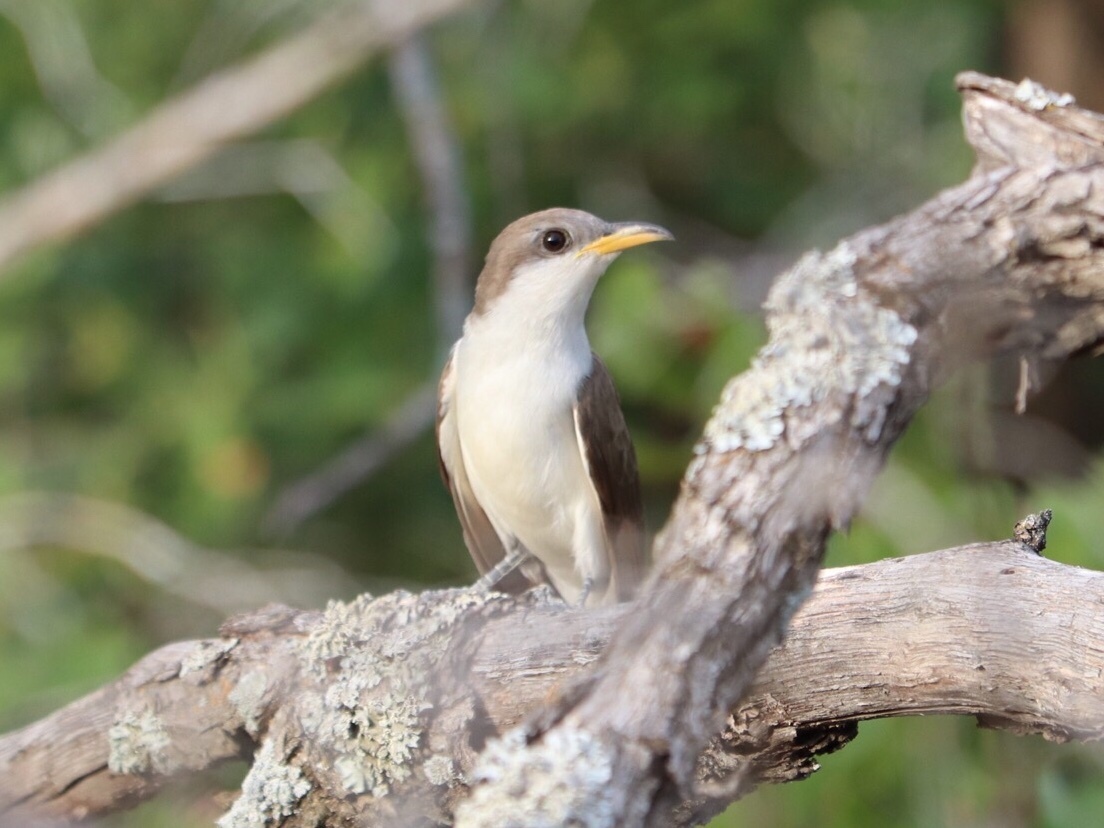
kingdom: Animalia
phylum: Chordata
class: Aves
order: Cuculiformes
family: Cuculidae
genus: Coccyzus
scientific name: Coccyzus americanus
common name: Yellow-billed cuckoo
